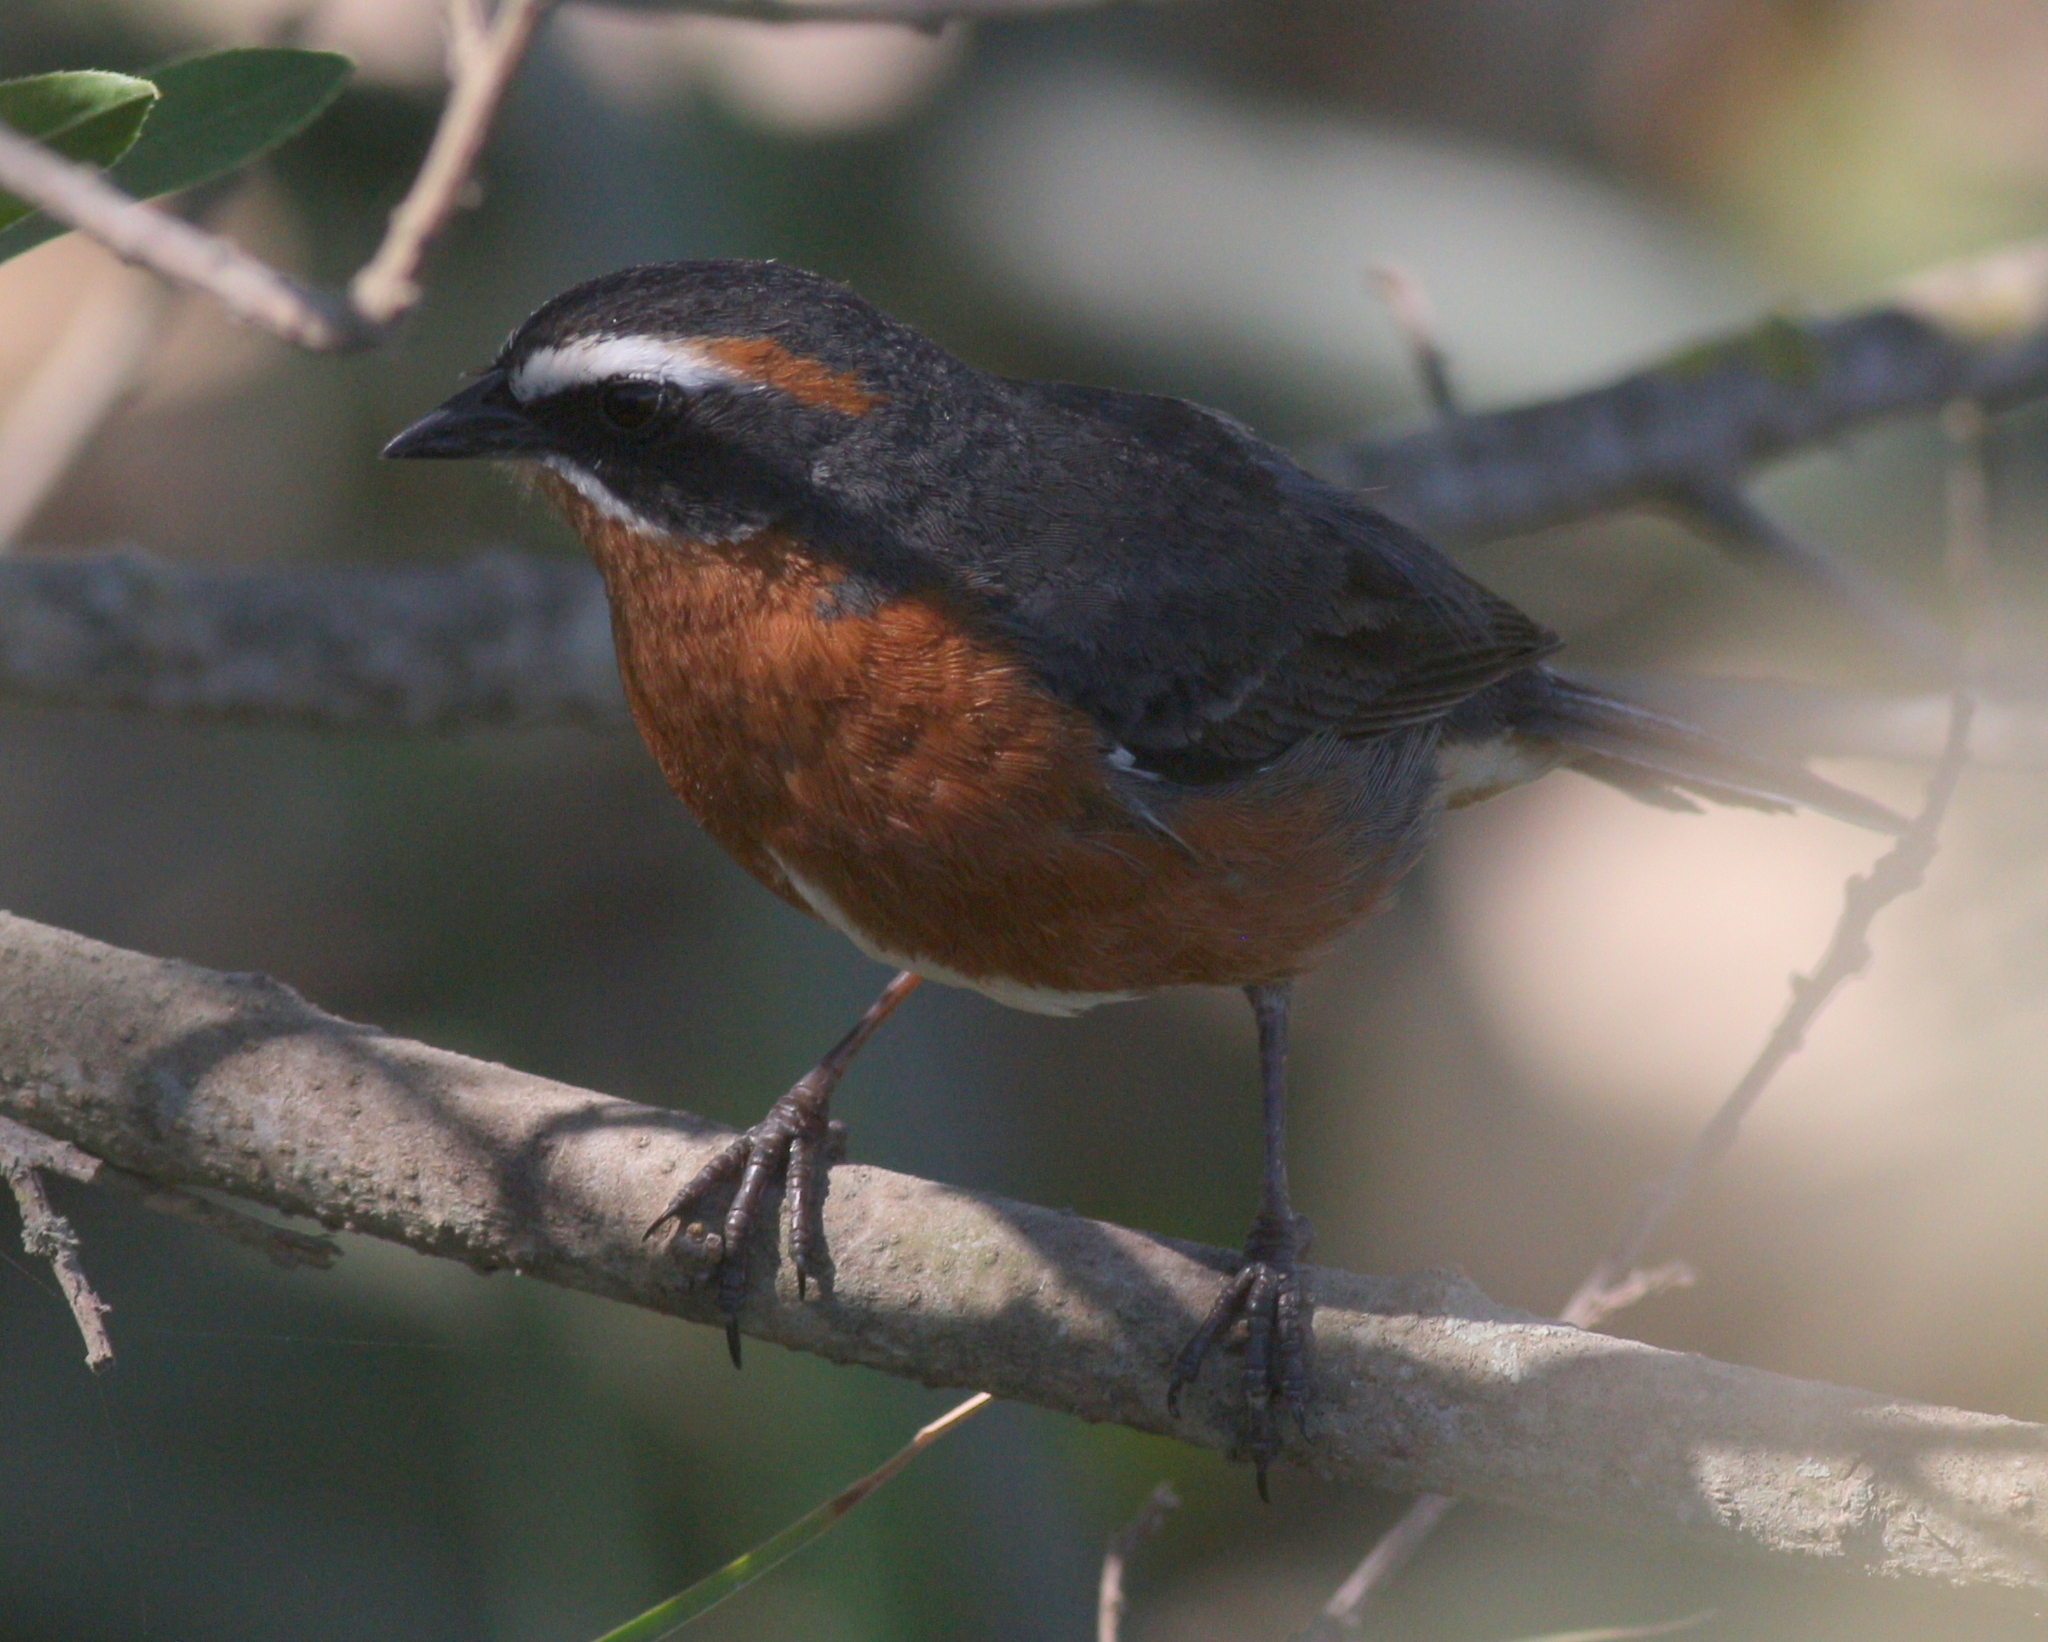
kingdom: Animalia
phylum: Chordata
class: Aves
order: Passeriformes
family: Thraupidae
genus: Poospiza
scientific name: Poospiza nigrorufa
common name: Black-and-rufous warbling finch
